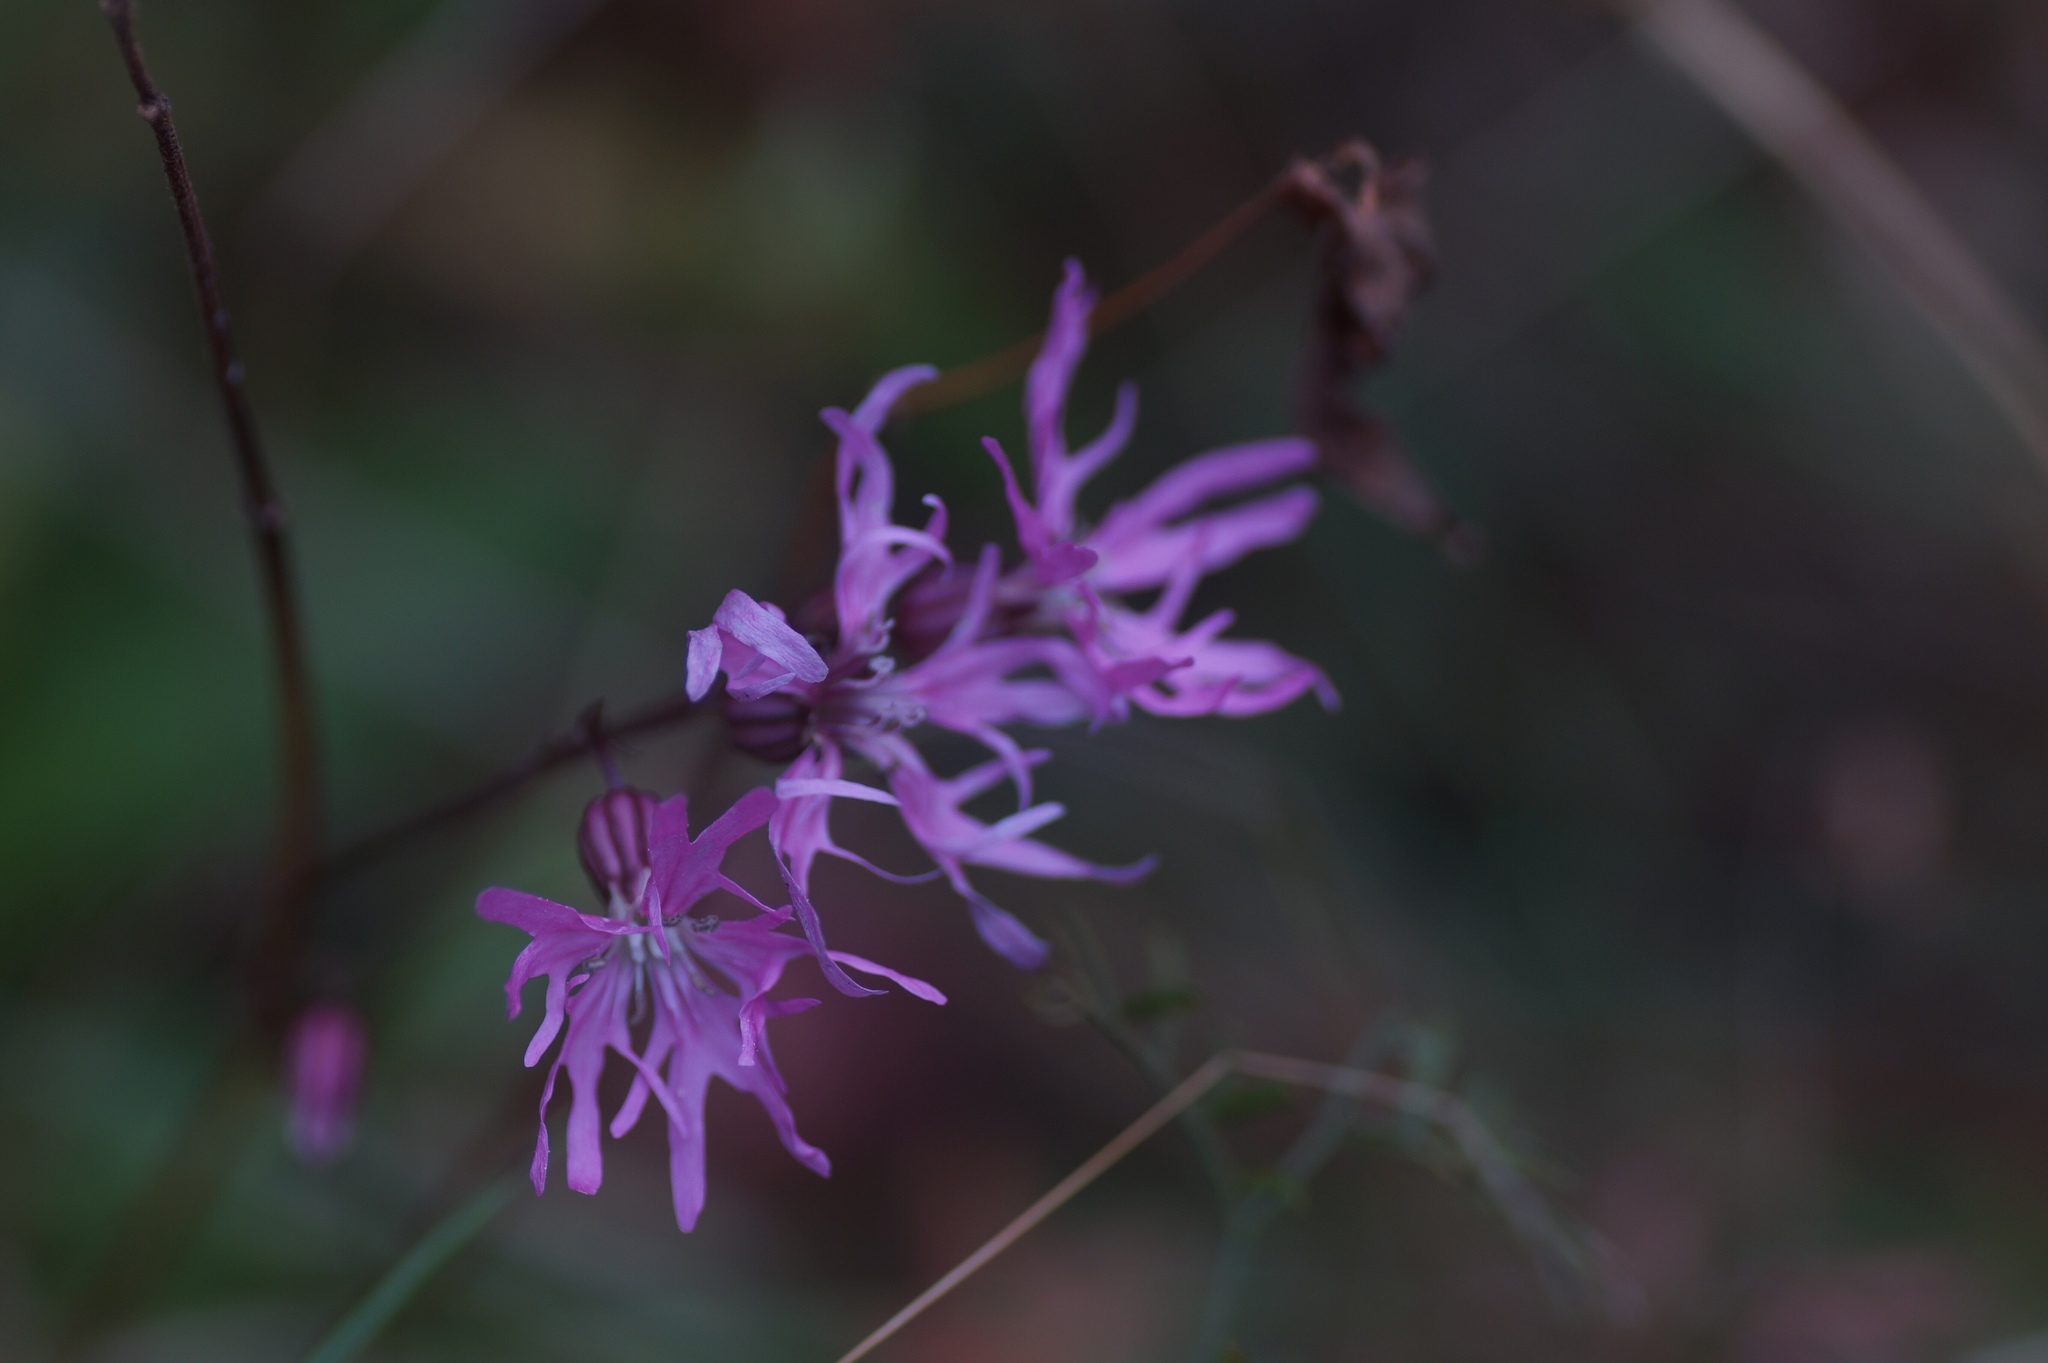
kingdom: Plantae
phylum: Tracheophyta
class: Magnoliopsida
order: Caryophyllales
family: Caryophyllaceae
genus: Silene
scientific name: Silene flos-cuculi
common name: Ragged-robin
